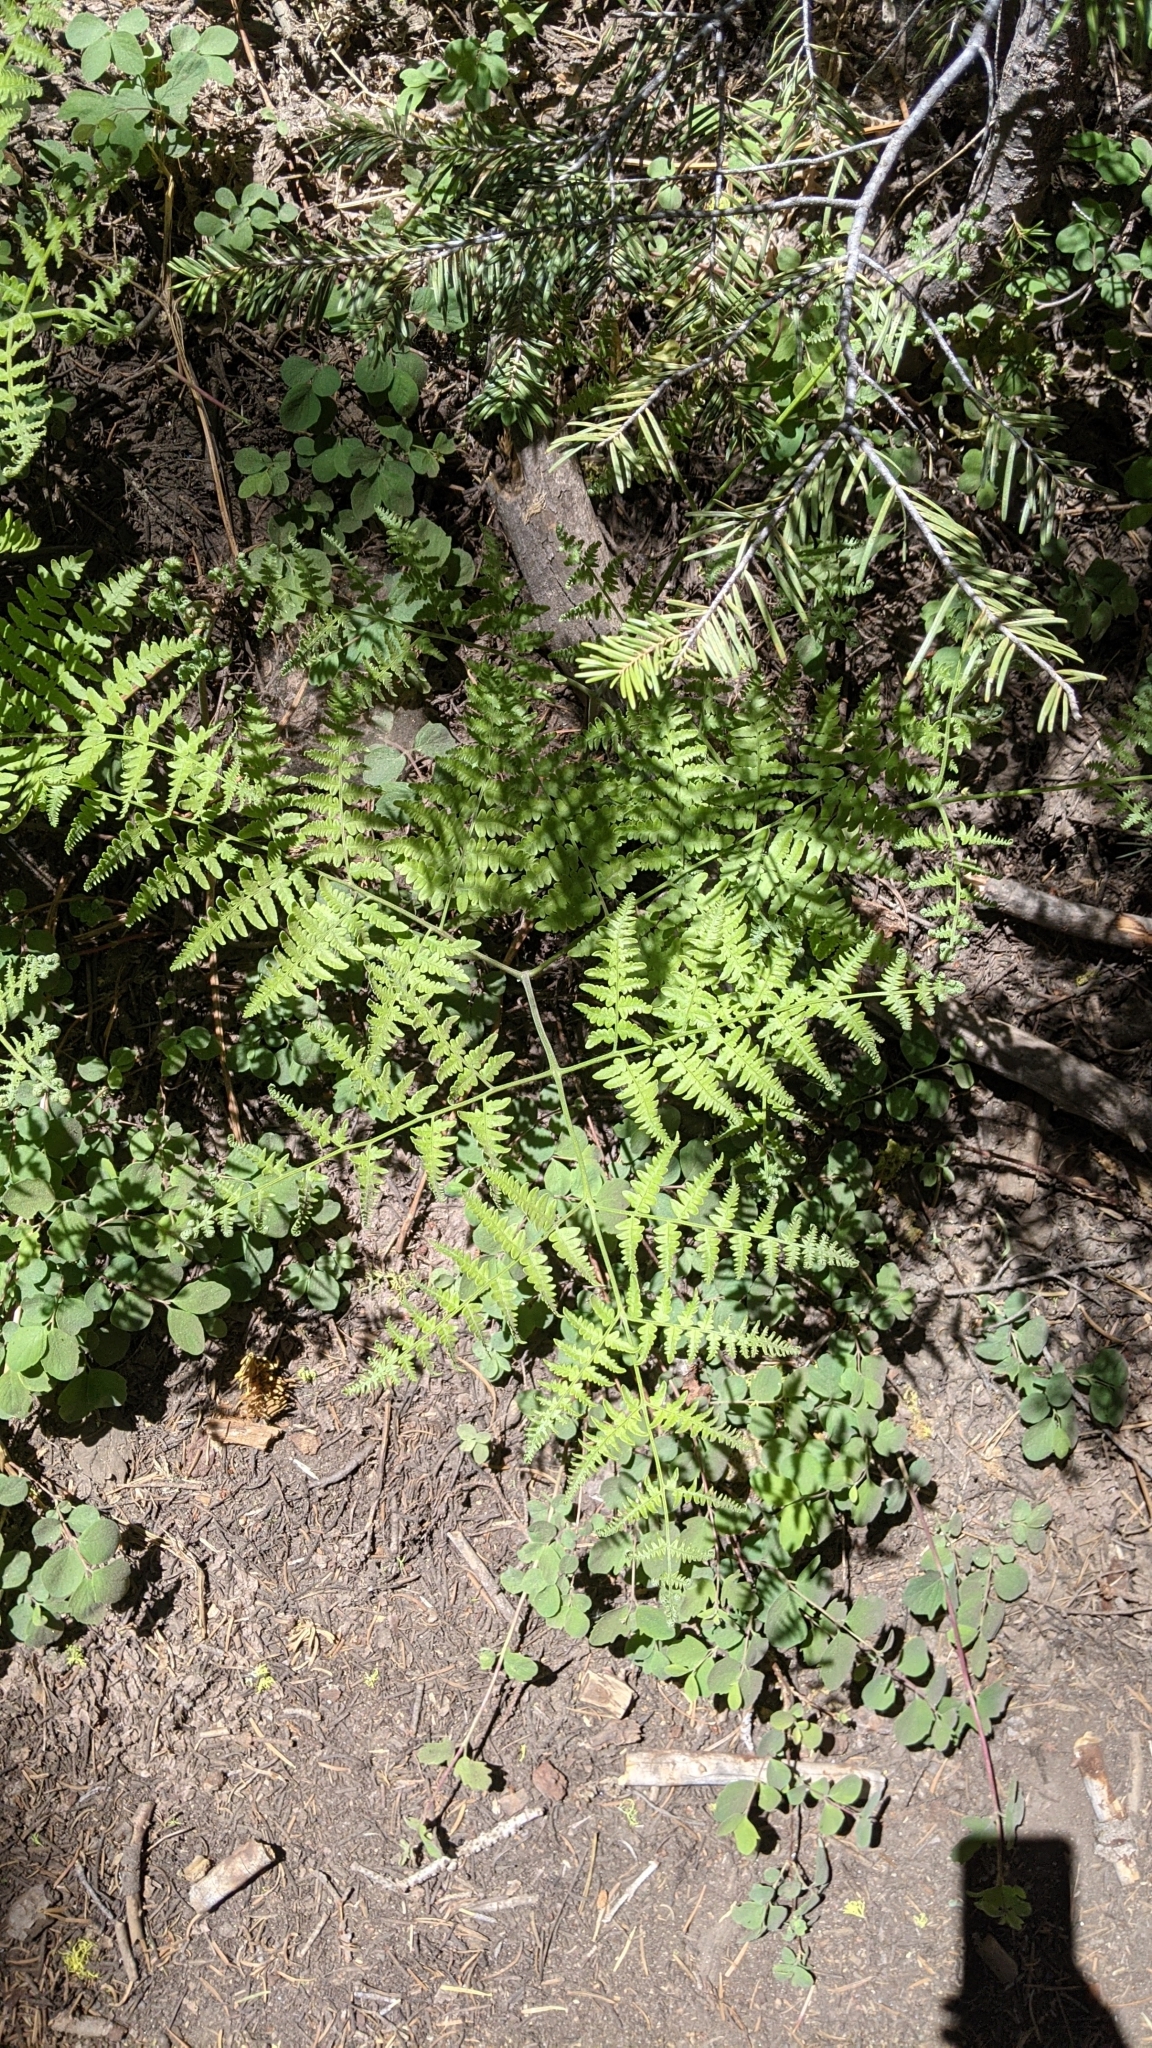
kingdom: Plantae
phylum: Tracheophyta
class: Polypodiopsida
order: Polypodiales
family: Dennstaedtiaceae
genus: Pteridium
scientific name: Pteridium aquilinum
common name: Bracken
